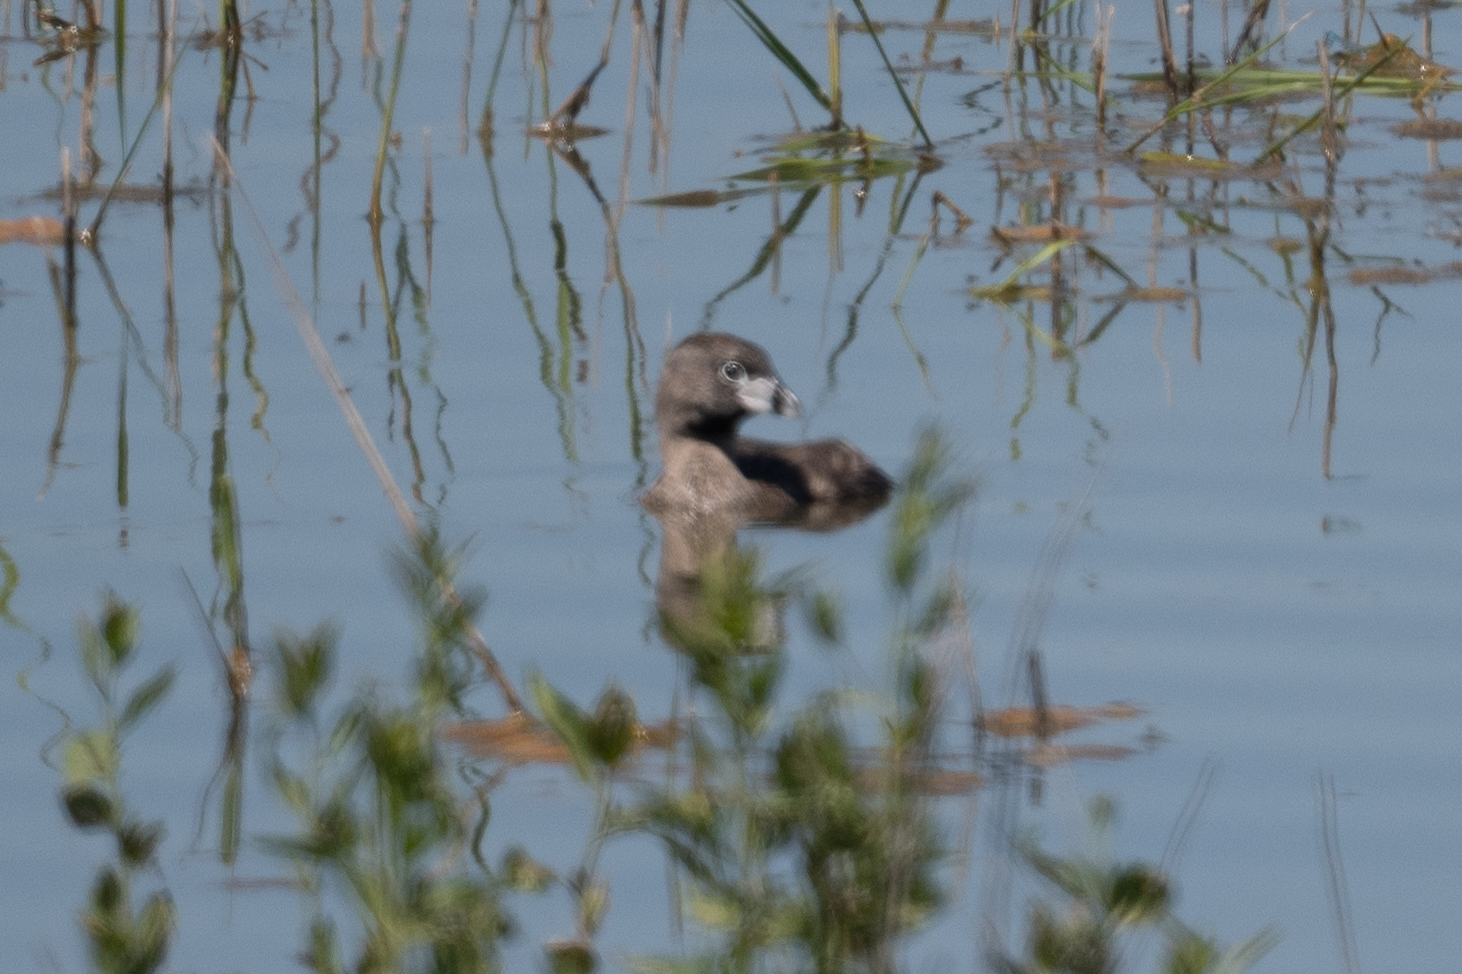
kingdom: Animalia
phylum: Chordata
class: Aves
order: Podicipediformes
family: Podicipedidae
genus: Podilymbus
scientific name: Podilymbus podiceps
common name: Pied-billed grebe
